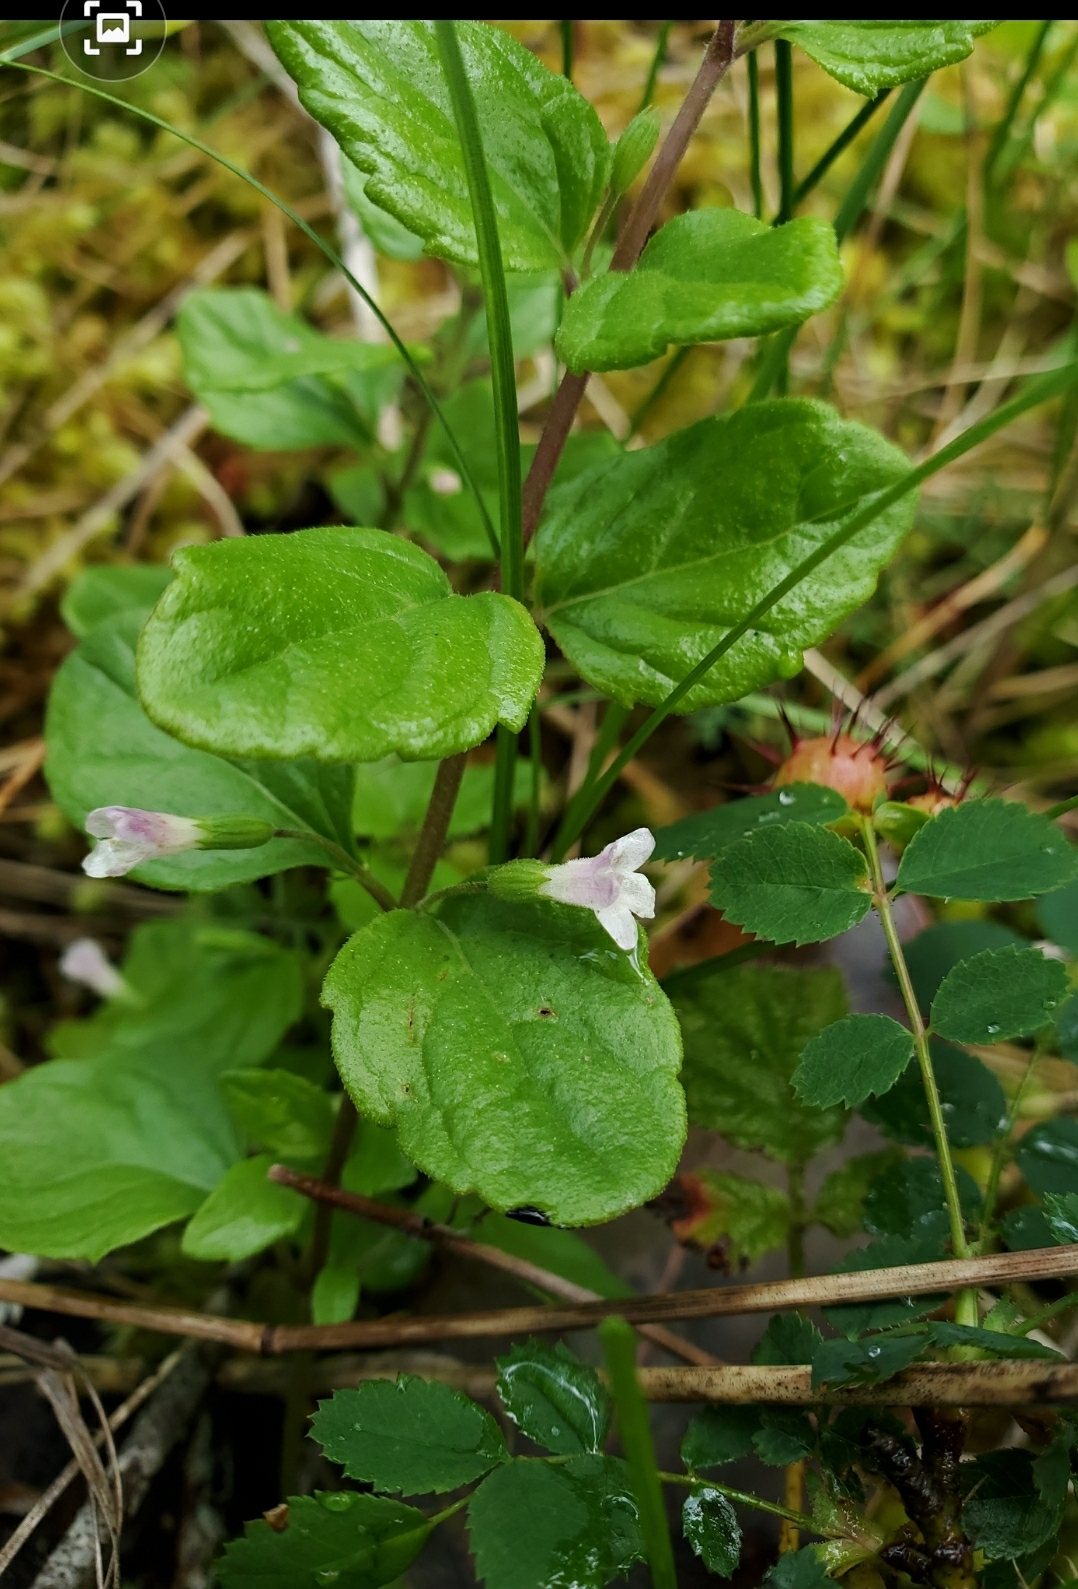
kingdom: Plantae
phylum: Tracheophyta
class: Magnoliopsida
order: Lamiales
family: Lamiaceae
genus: Micromeria
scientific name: Micromeria douglasii
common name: Yerba buena
